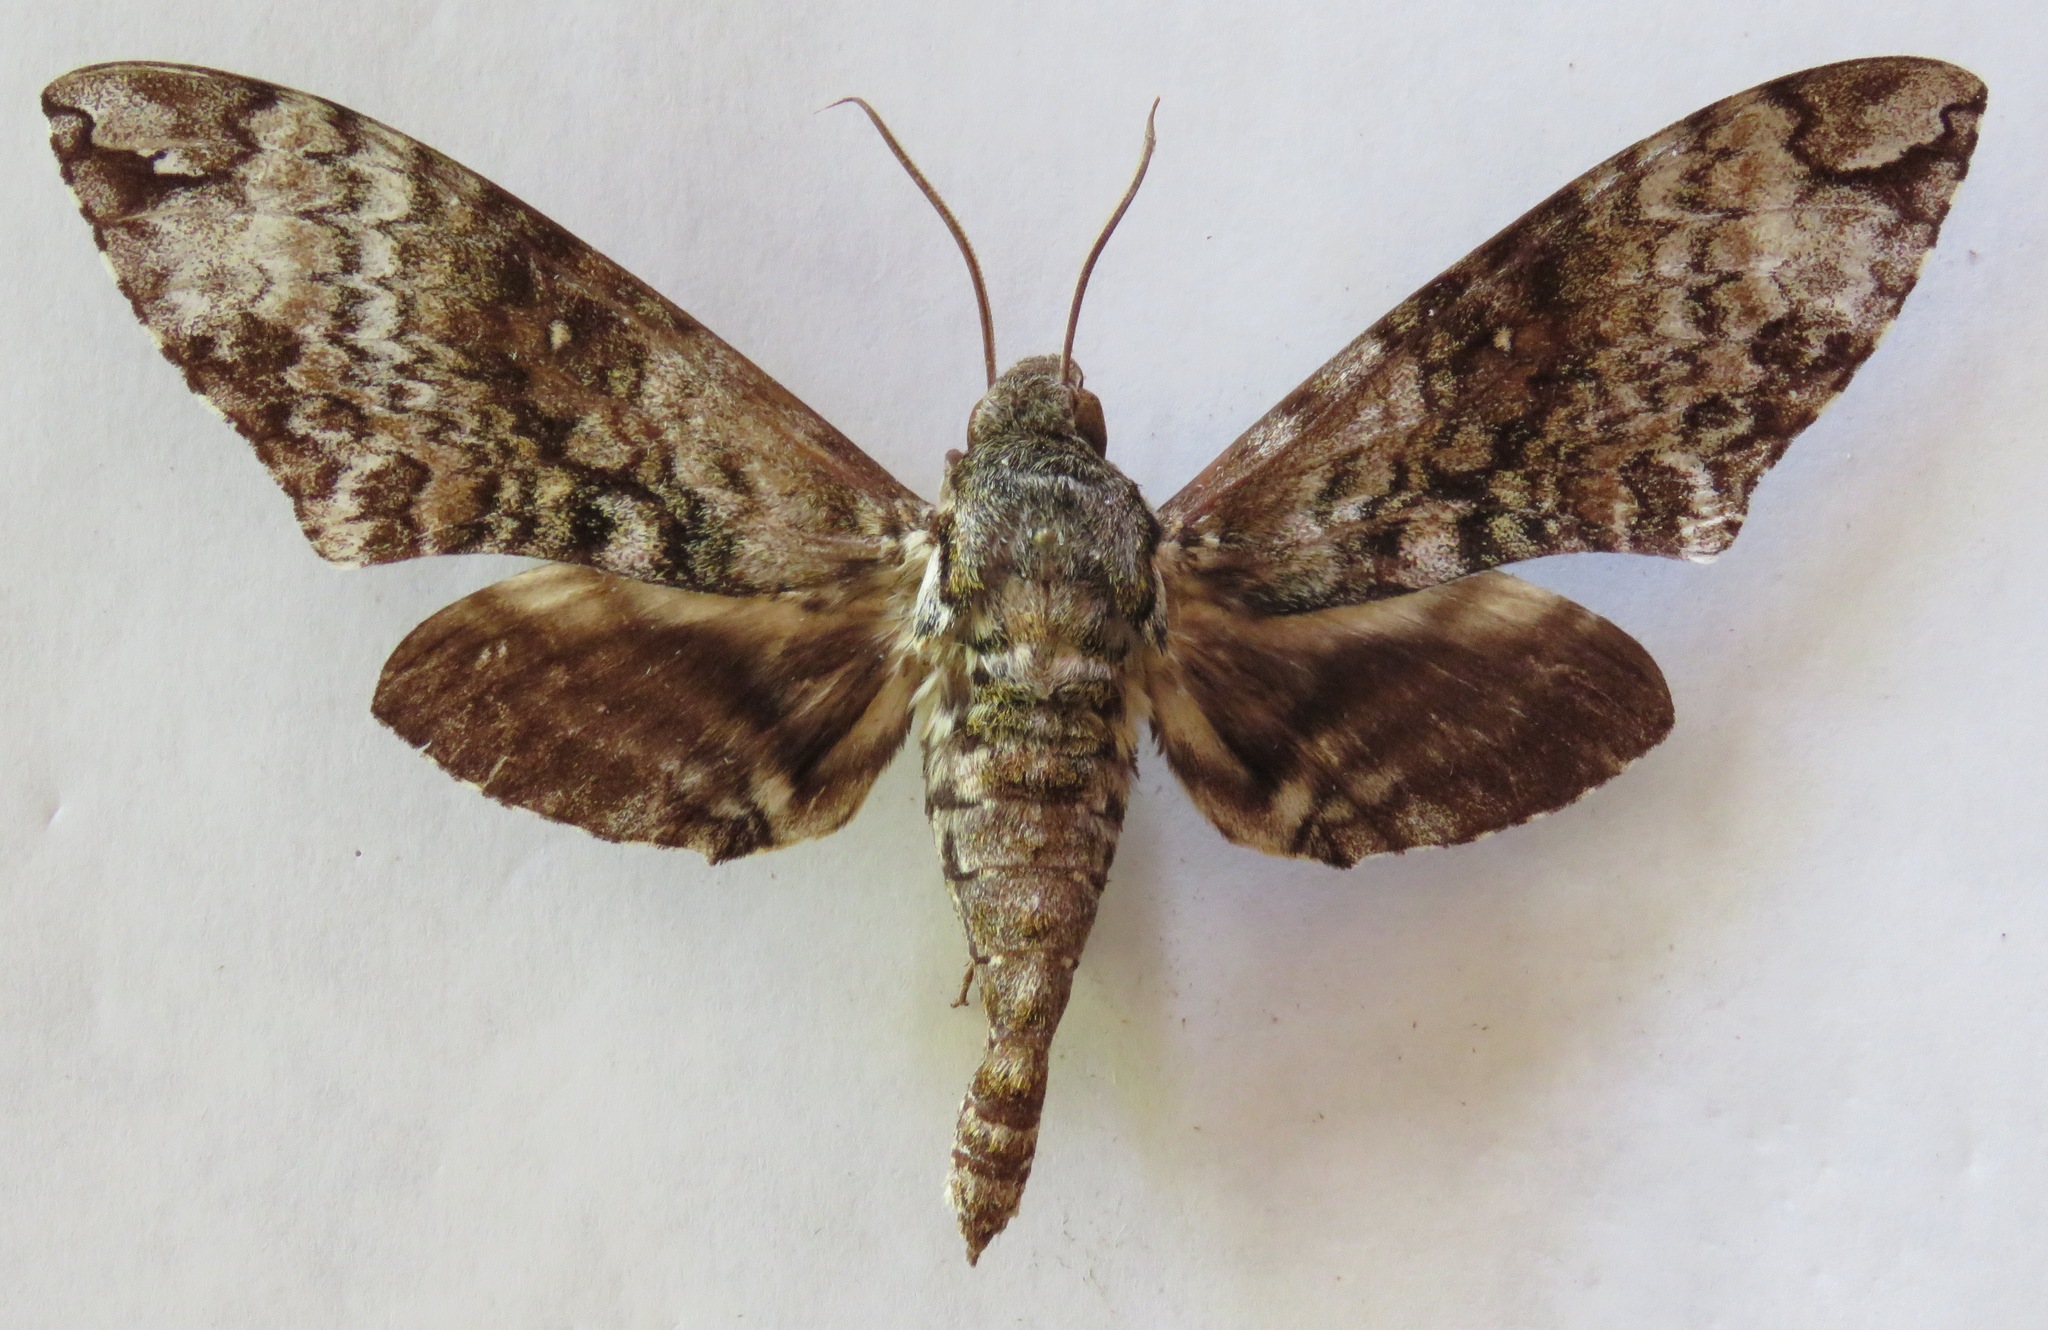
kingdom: Animalia
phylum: Arthropoda
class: Insecta
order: Lepidoptera
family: Sphingidae
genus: Manduca
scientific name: Manduca schausi
